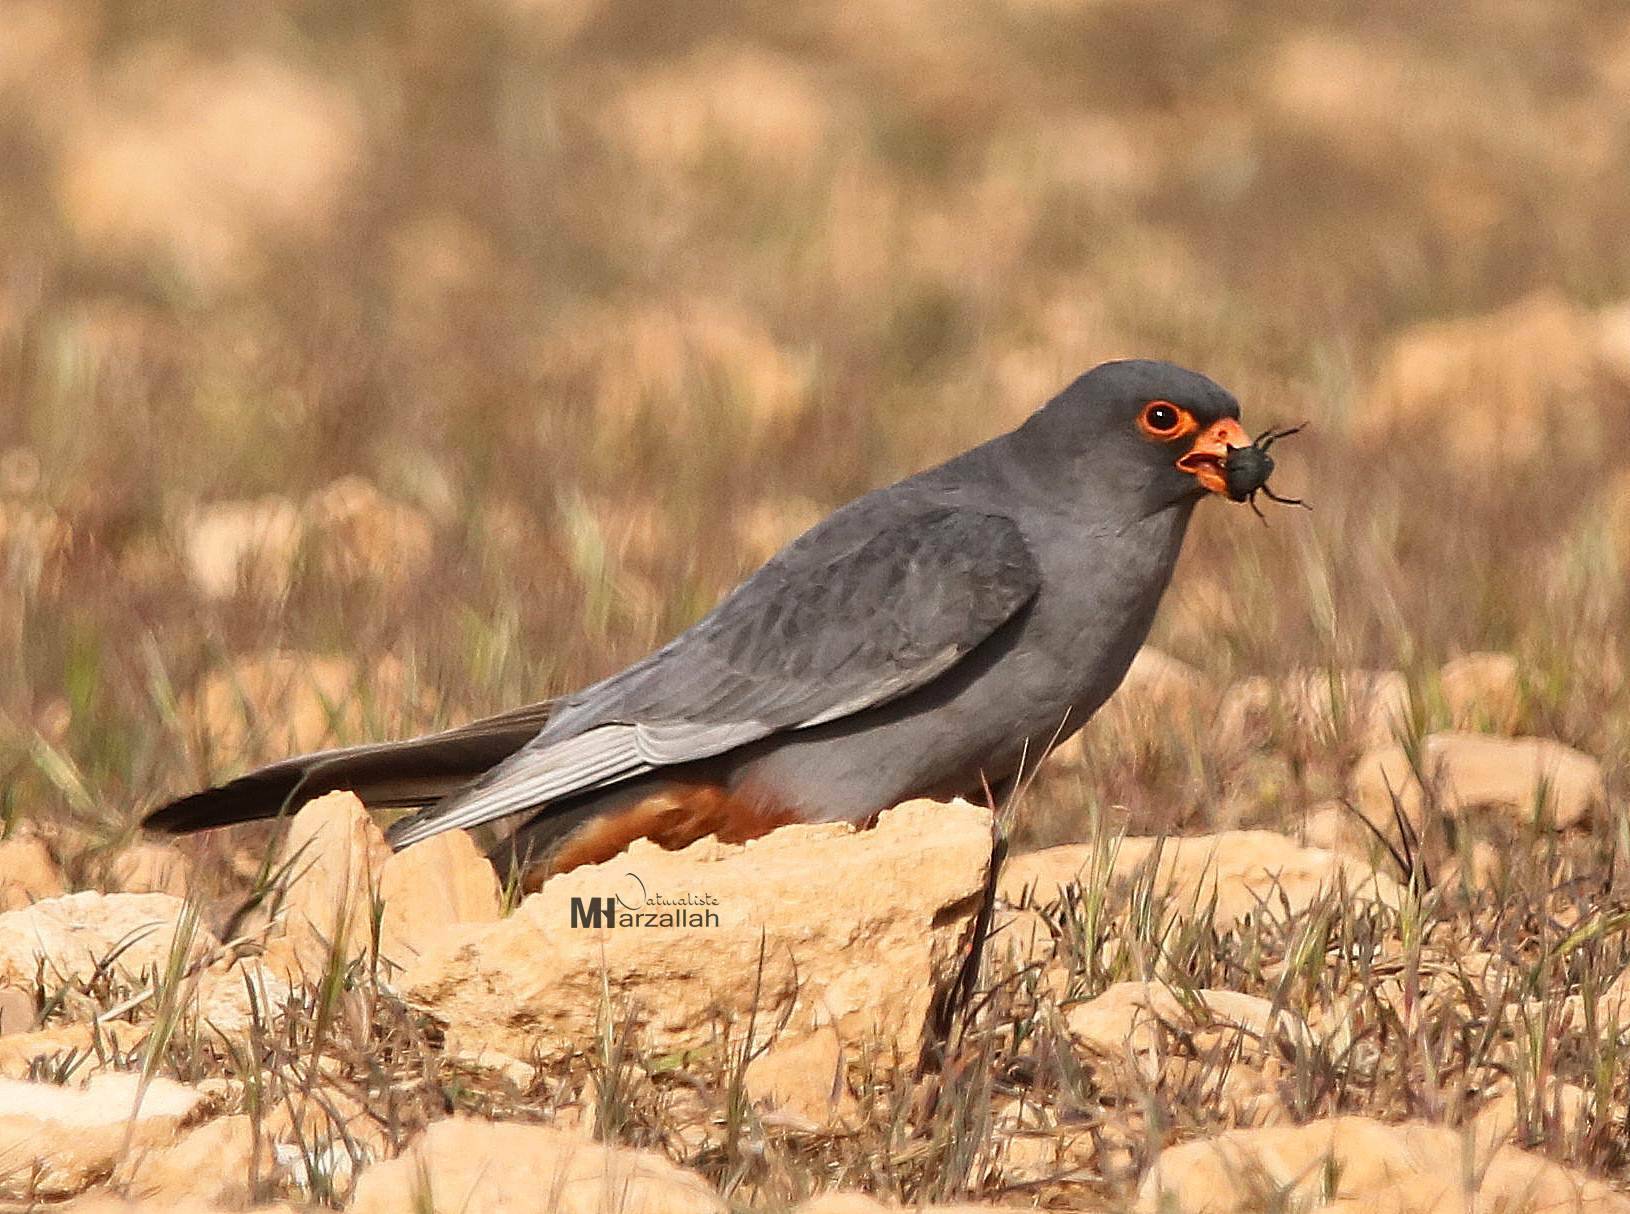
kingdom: Animalia
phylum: Chordata
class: Aves
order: Falconiformes
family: Falconidae
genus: Falco
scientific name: Falco vespertinus
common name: Red-footed falcon
